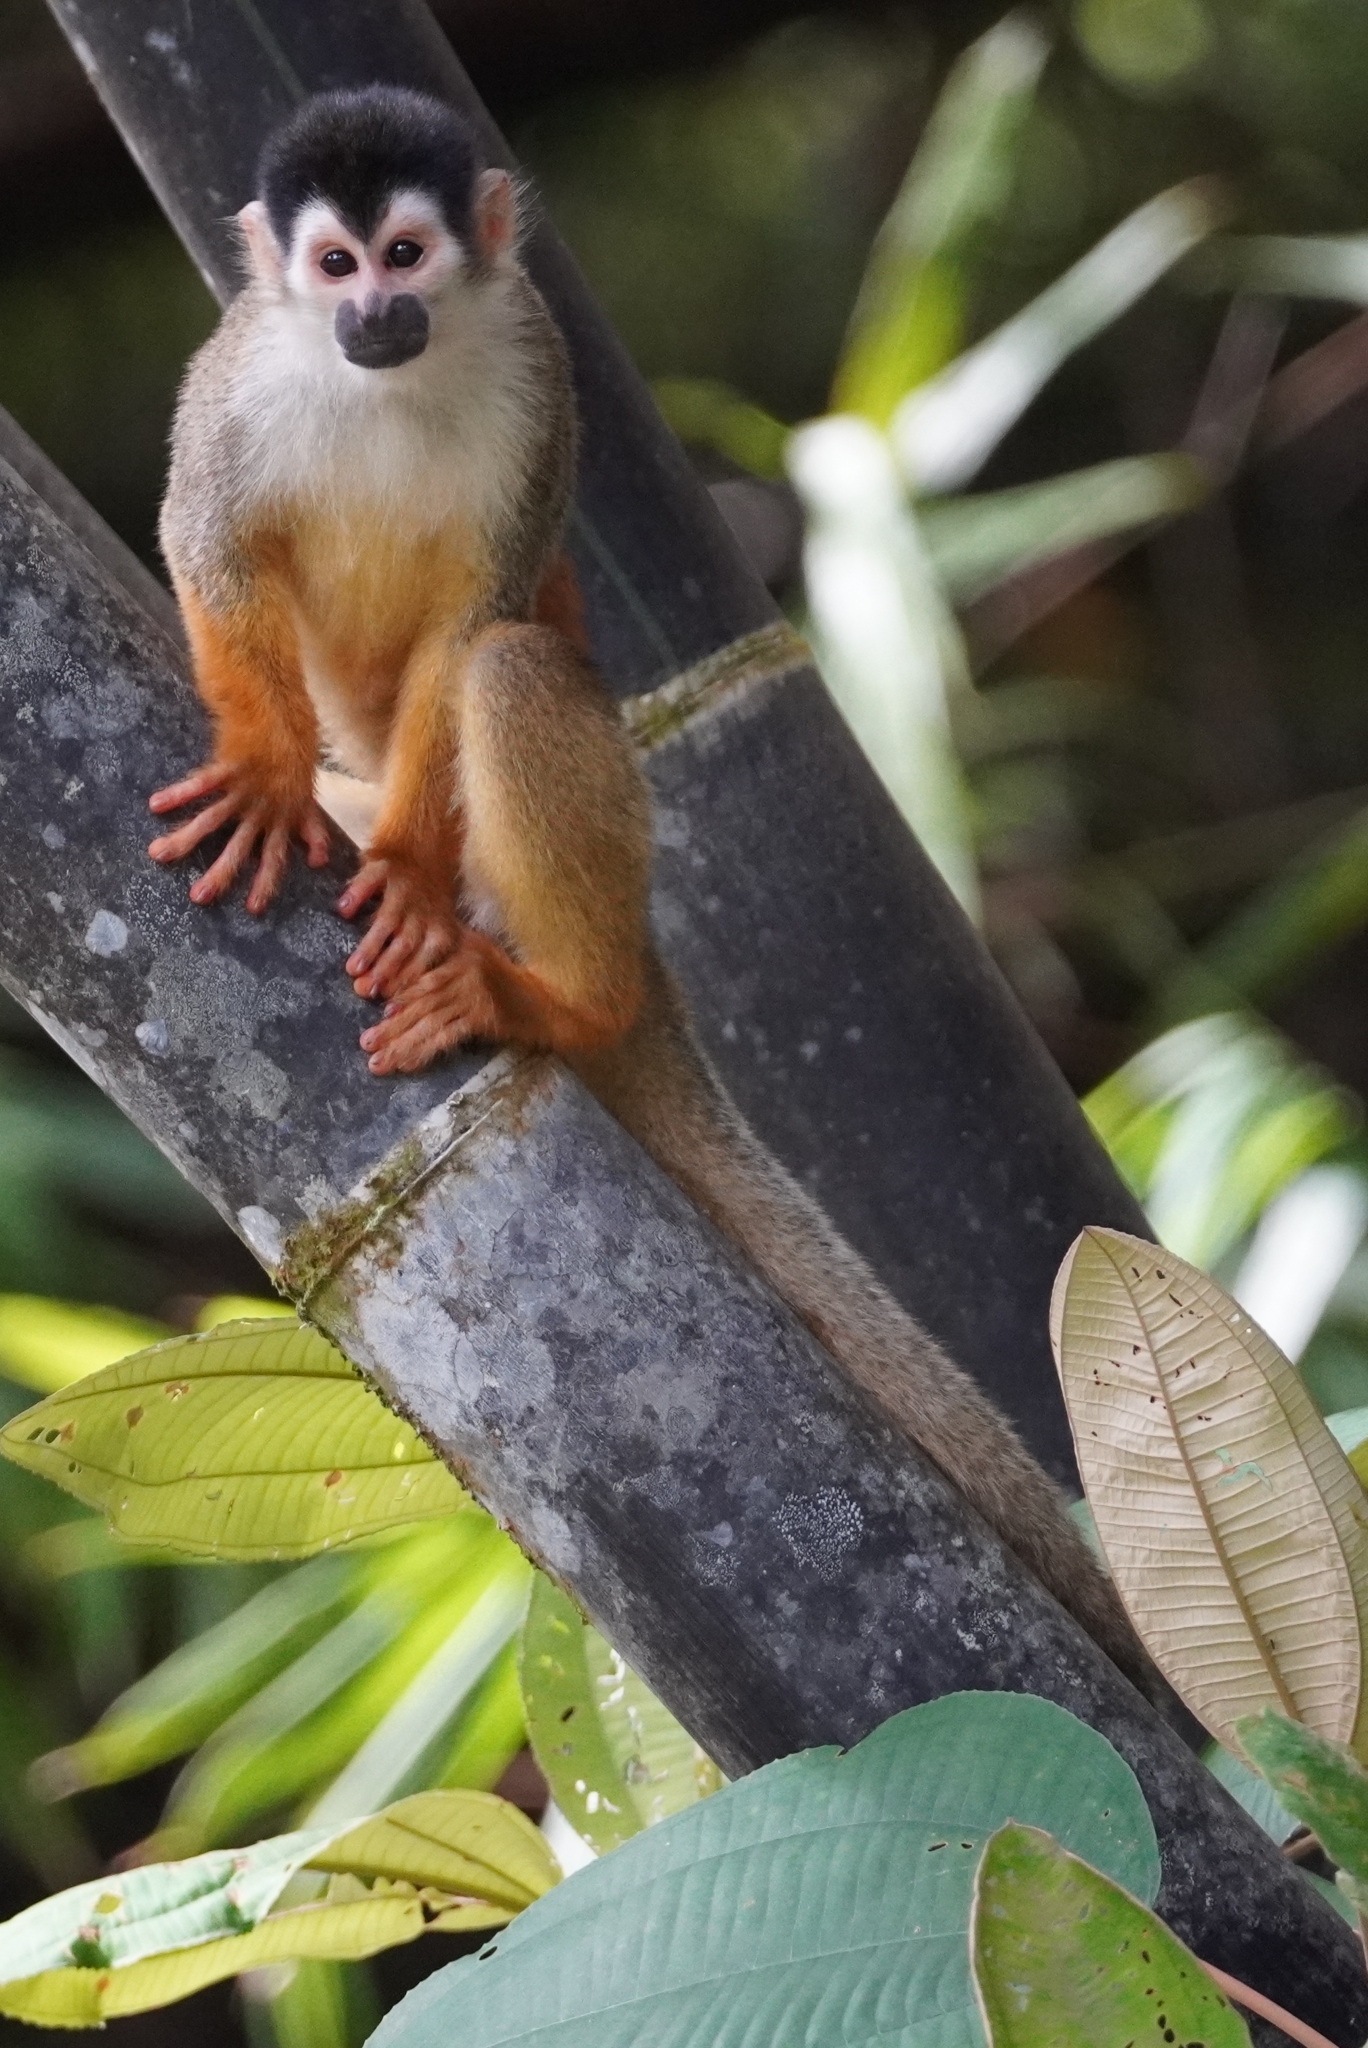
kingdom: Animalia
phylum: Chordata
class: Mammalia
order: Primates
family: Cebidae
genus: Saimiri
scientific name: Saimiri oerstedii
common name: Central american squirrel monkey
